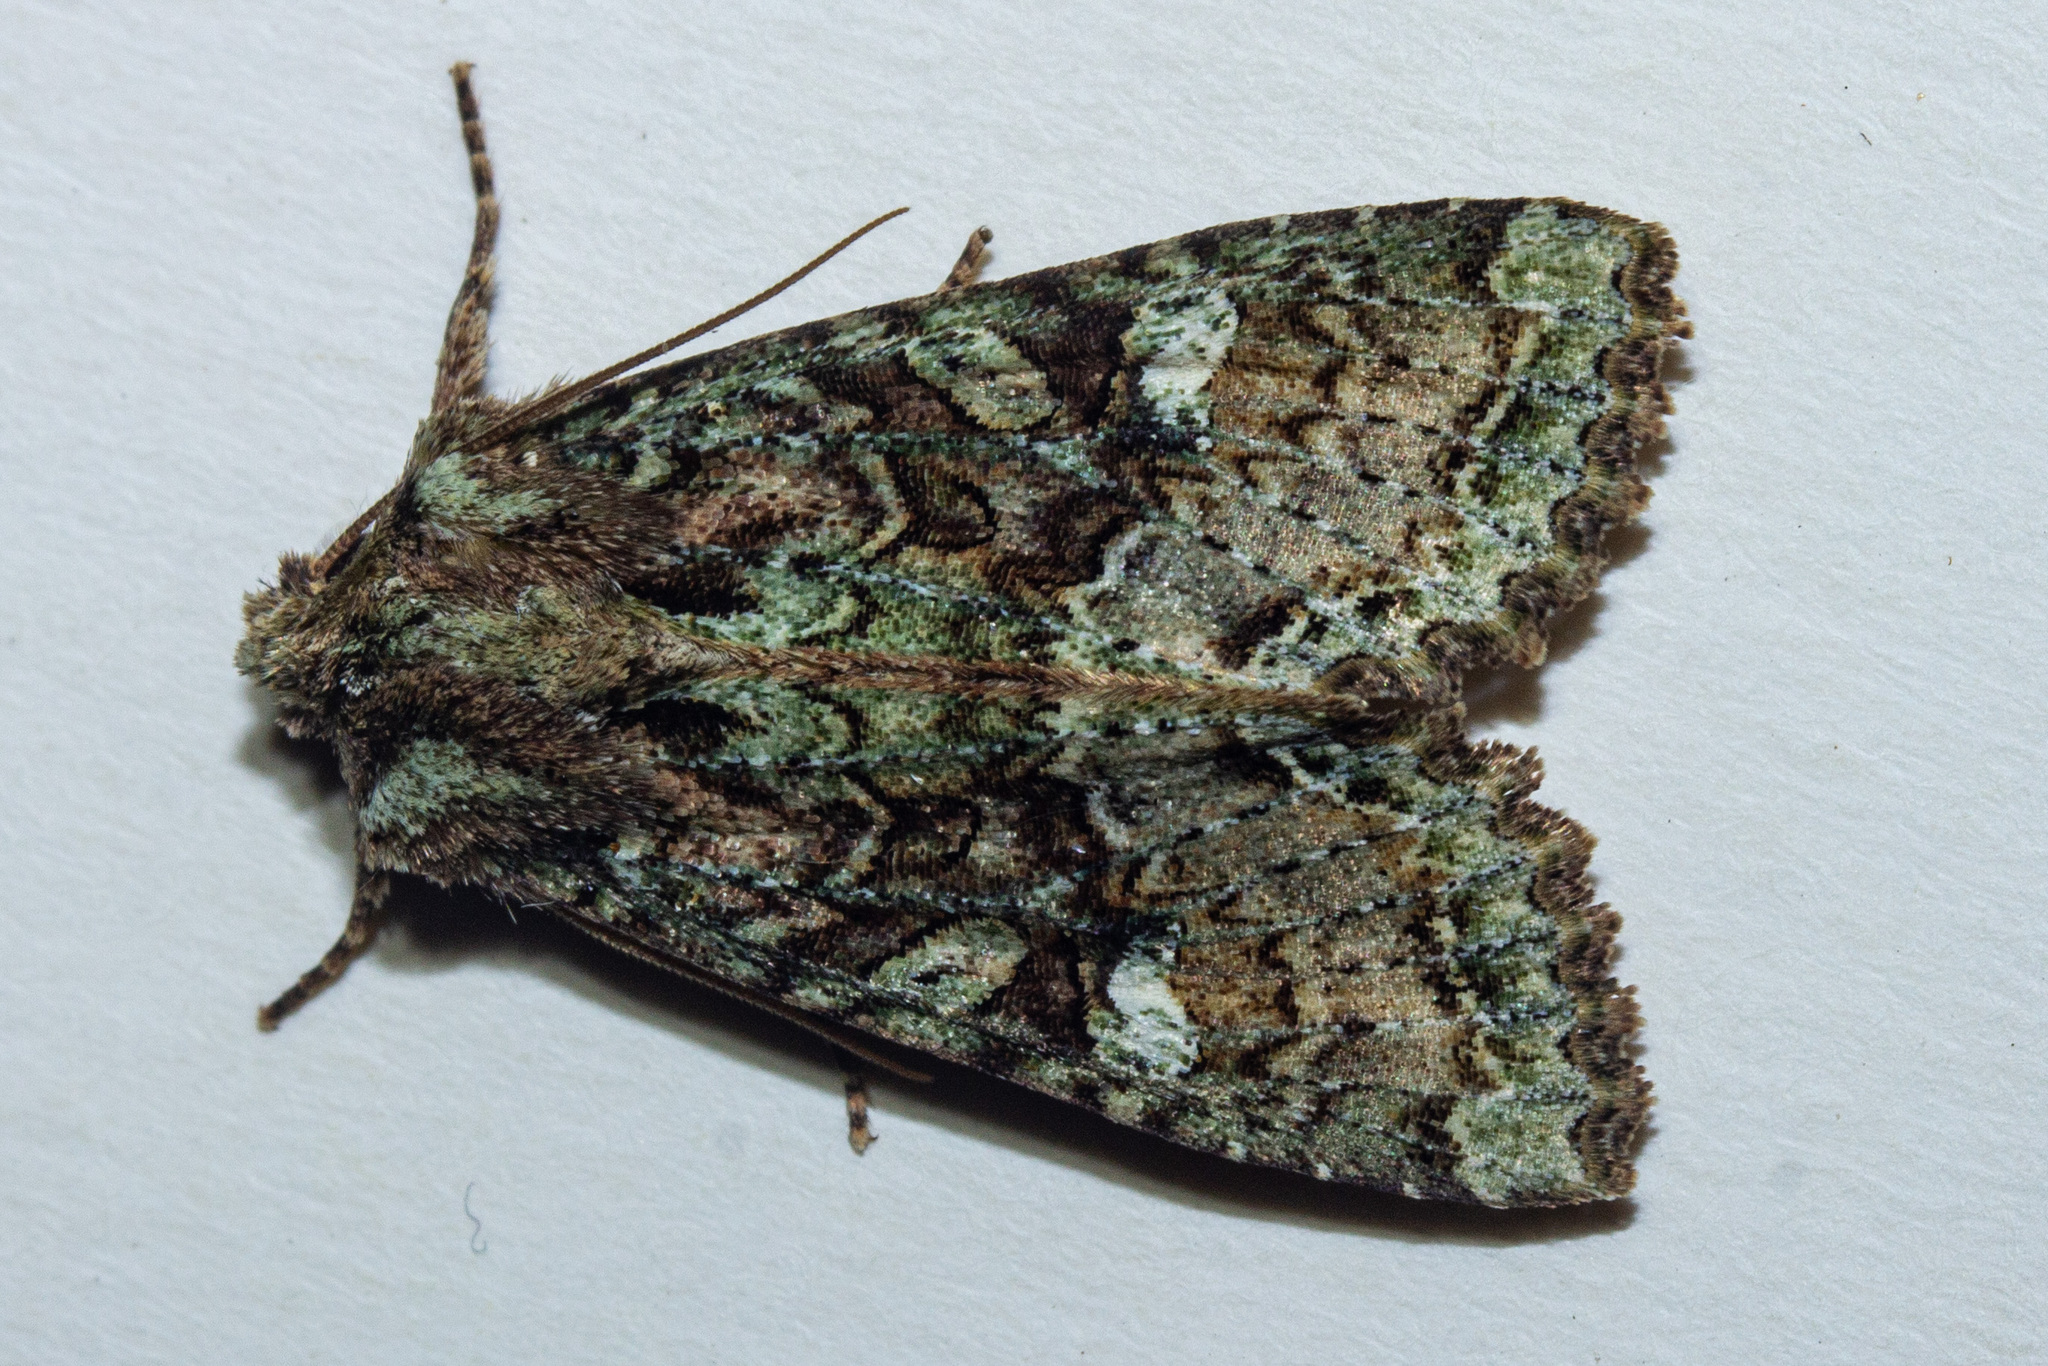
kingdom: Animalia
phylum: Arthropoda
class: Insecta
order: Lepidoptera
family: Noctuidae
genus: Meterana
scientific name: Meterana
